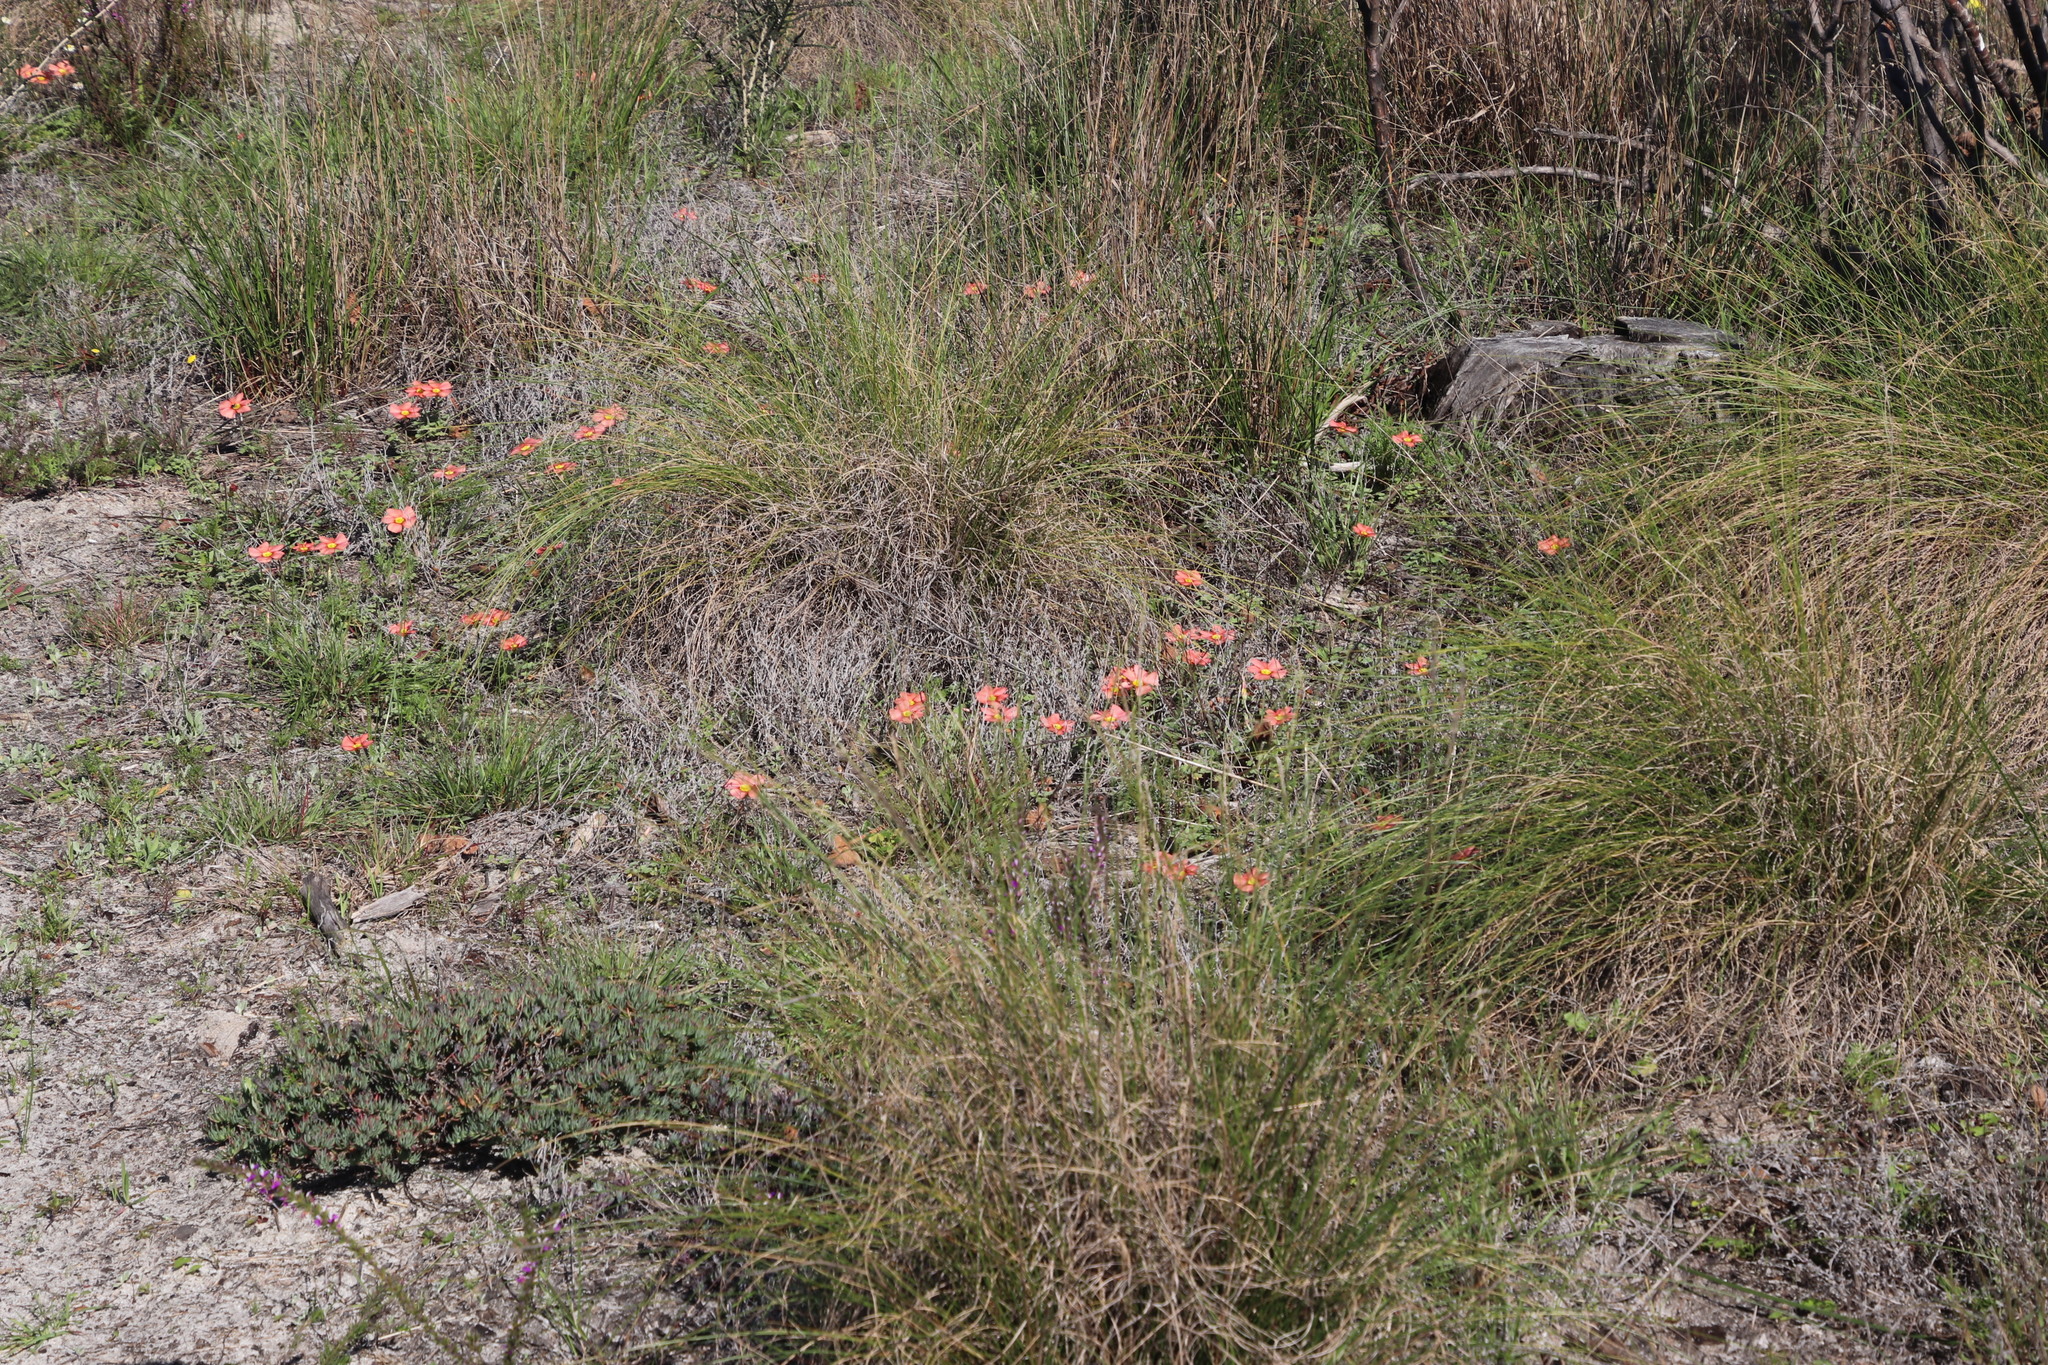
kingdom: Plantae
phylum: Tracheophyta
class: Magnoliopsida
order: Oxalidales
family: Oxalidaceae
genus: Oxalis
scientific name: Oxalis obtusa
